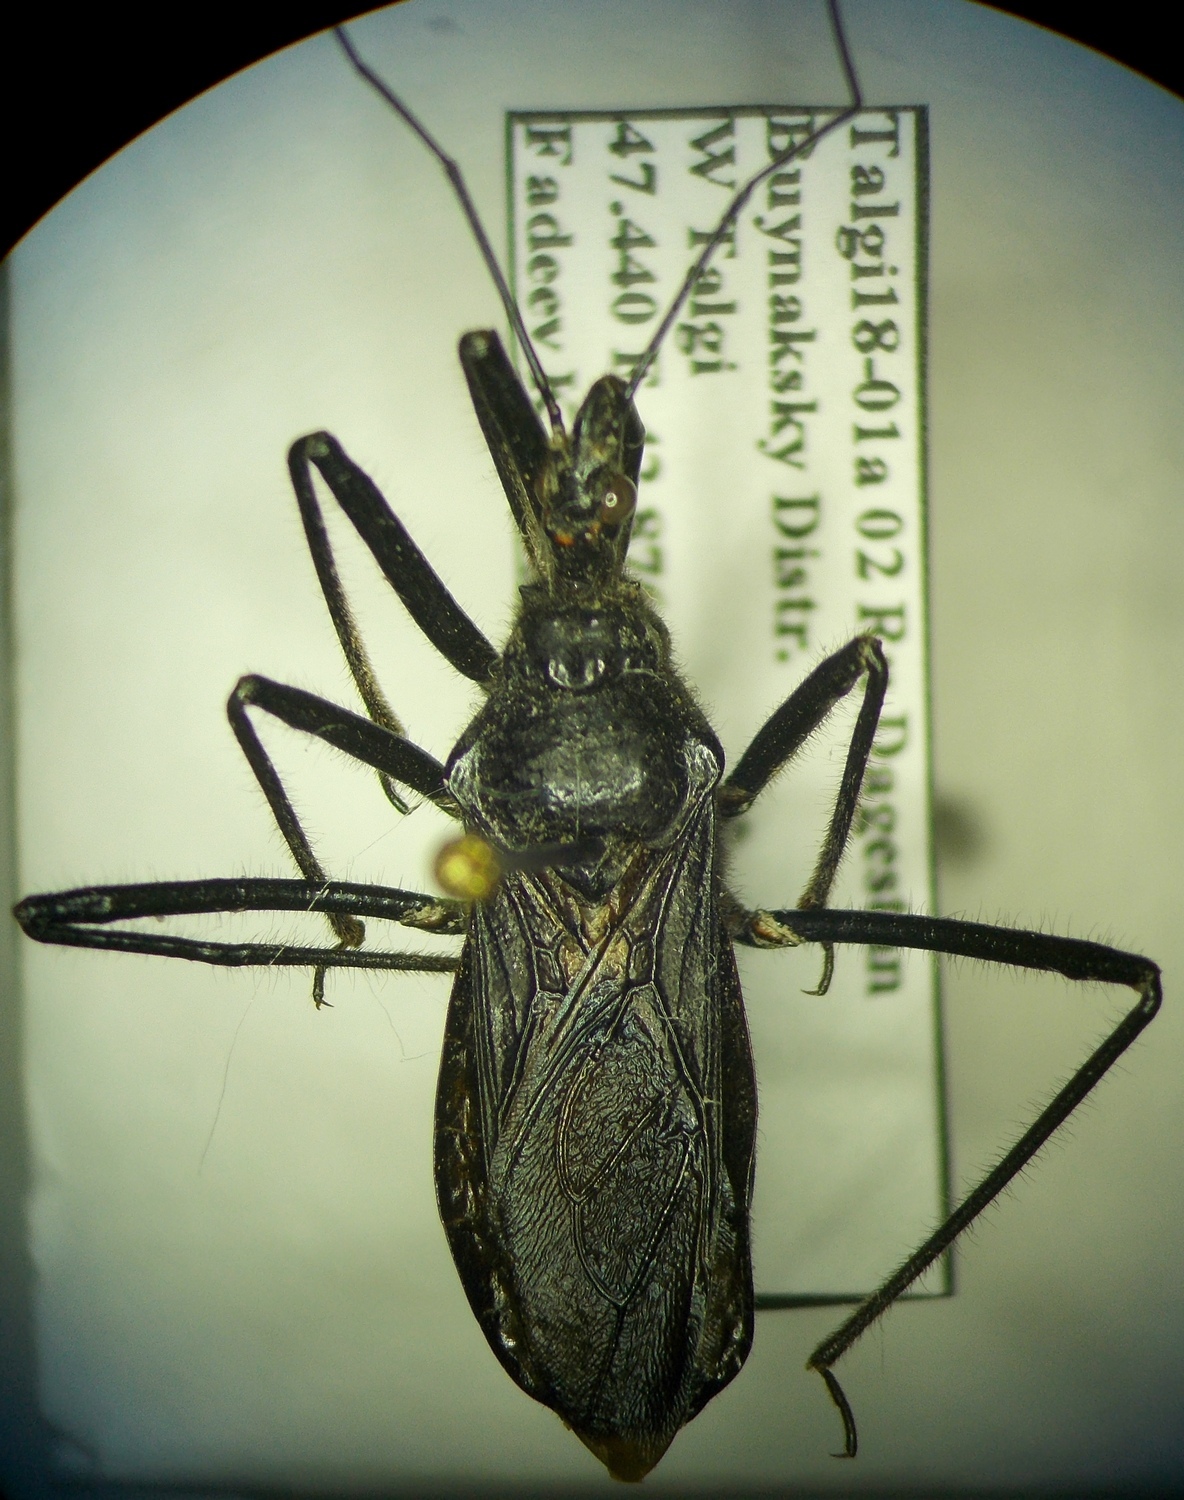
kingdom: Animalia
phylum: Arthropoda
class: Insecta
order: Hemiptera
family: Reduviidae
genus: Rhynocoris
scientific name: Rhynocoris ibericus
